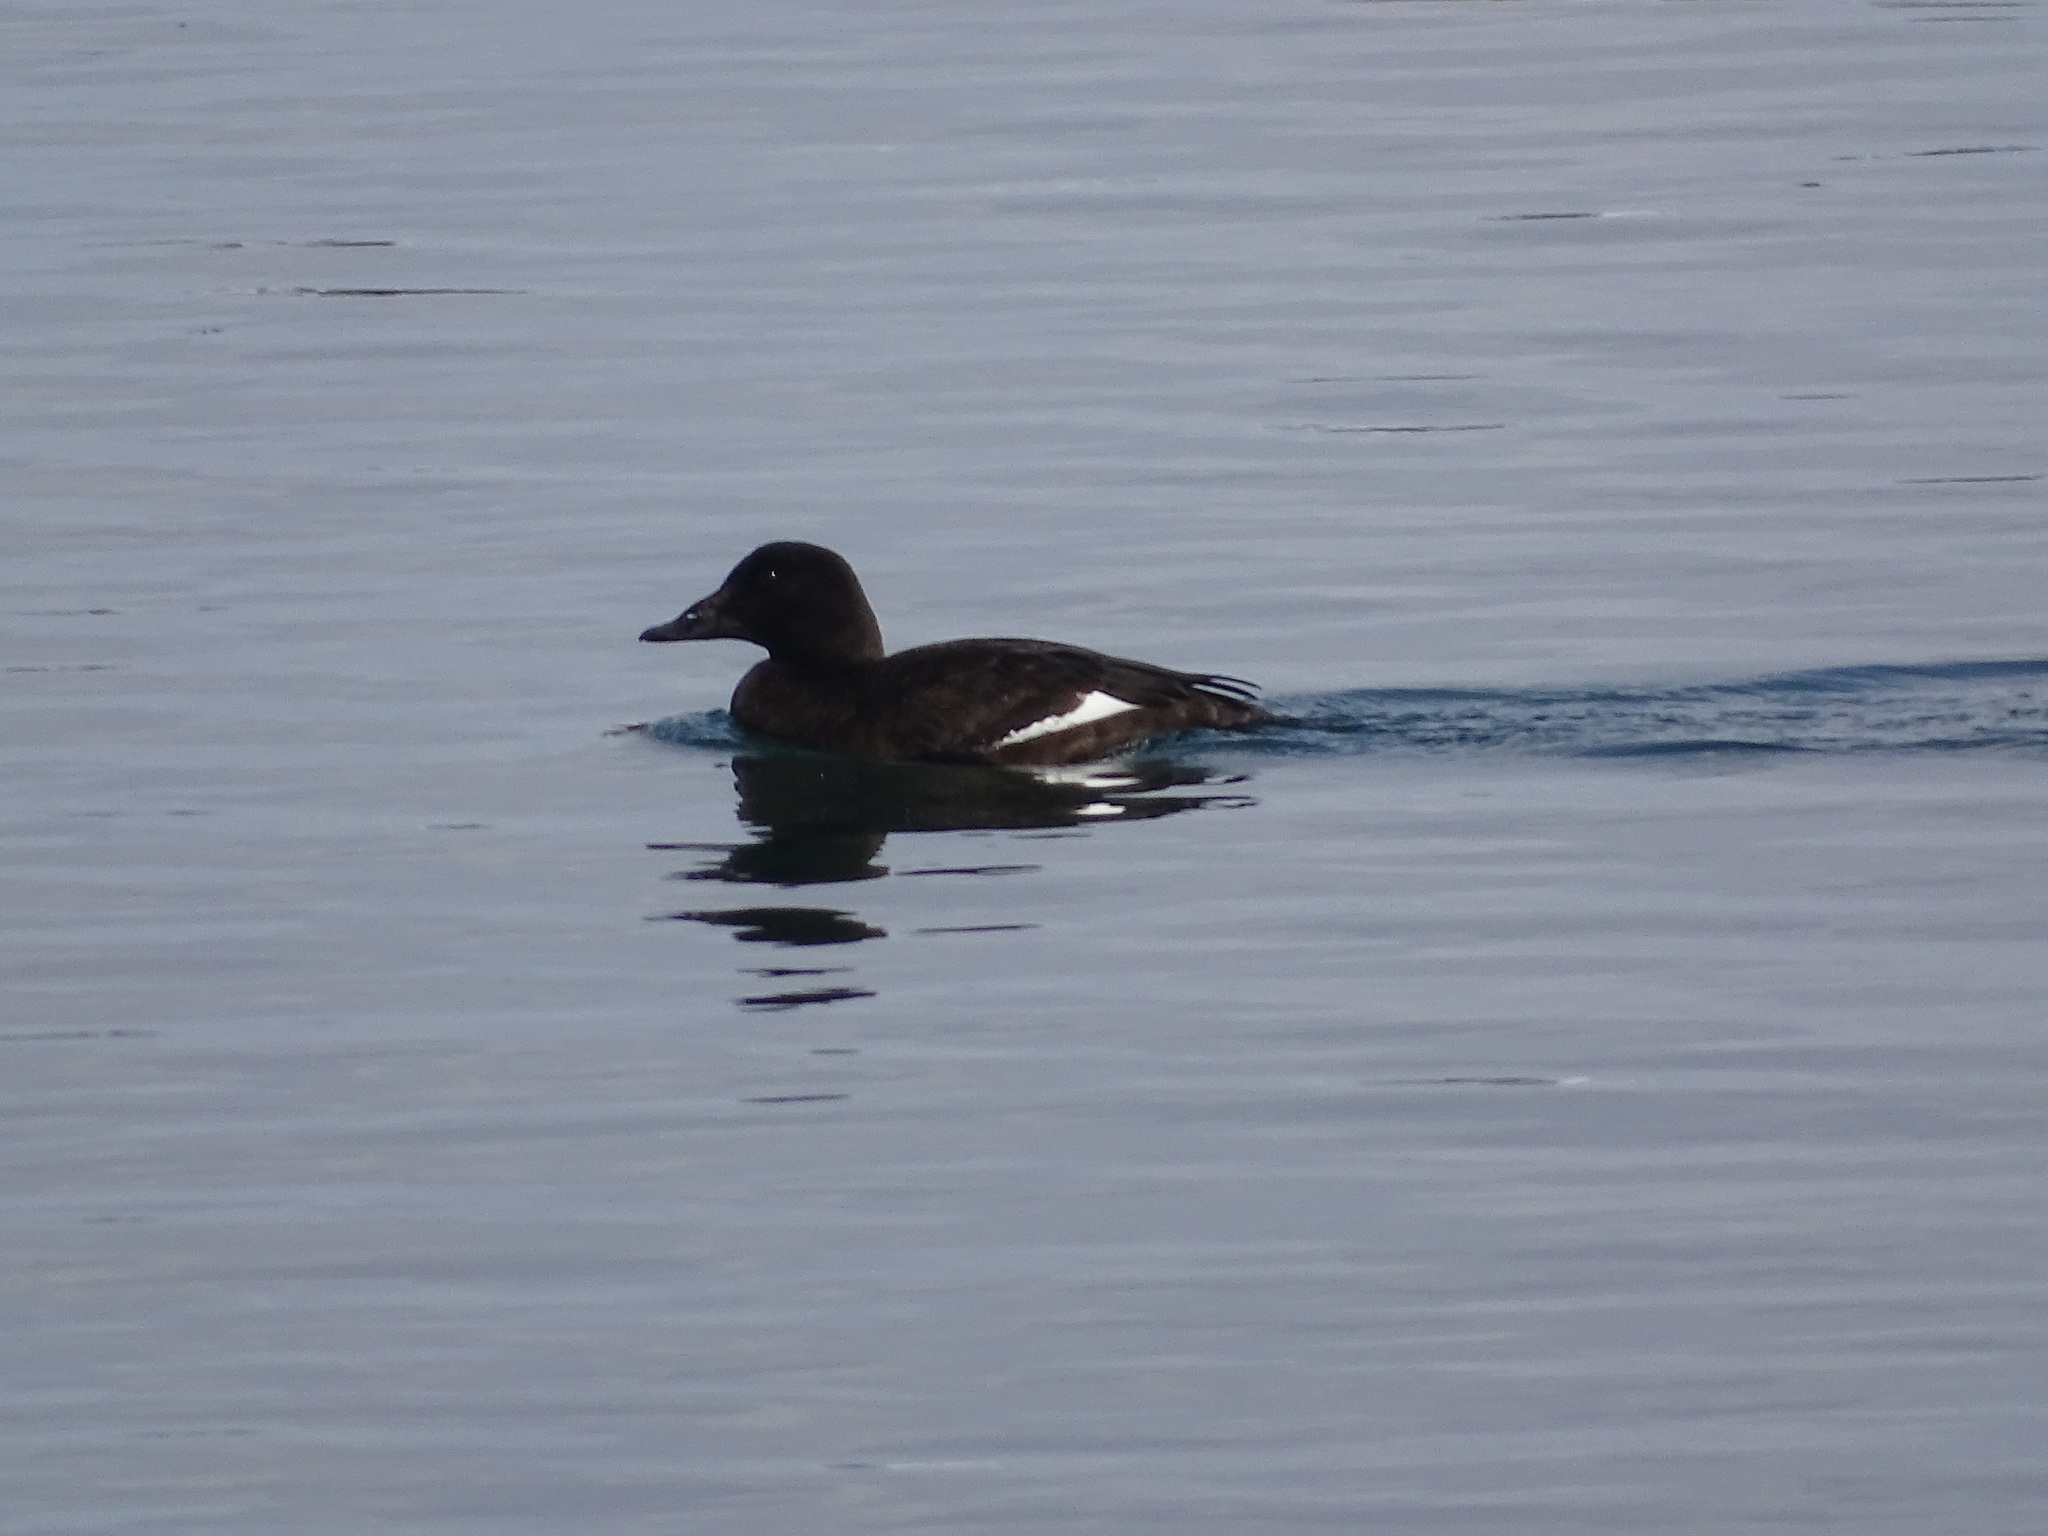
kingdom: Animalia
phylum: Chordata
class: Aves
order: Anseriformes
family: Anatidae
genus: Melanitta
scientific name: Melanitta deglandi
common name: White-winged scoter
